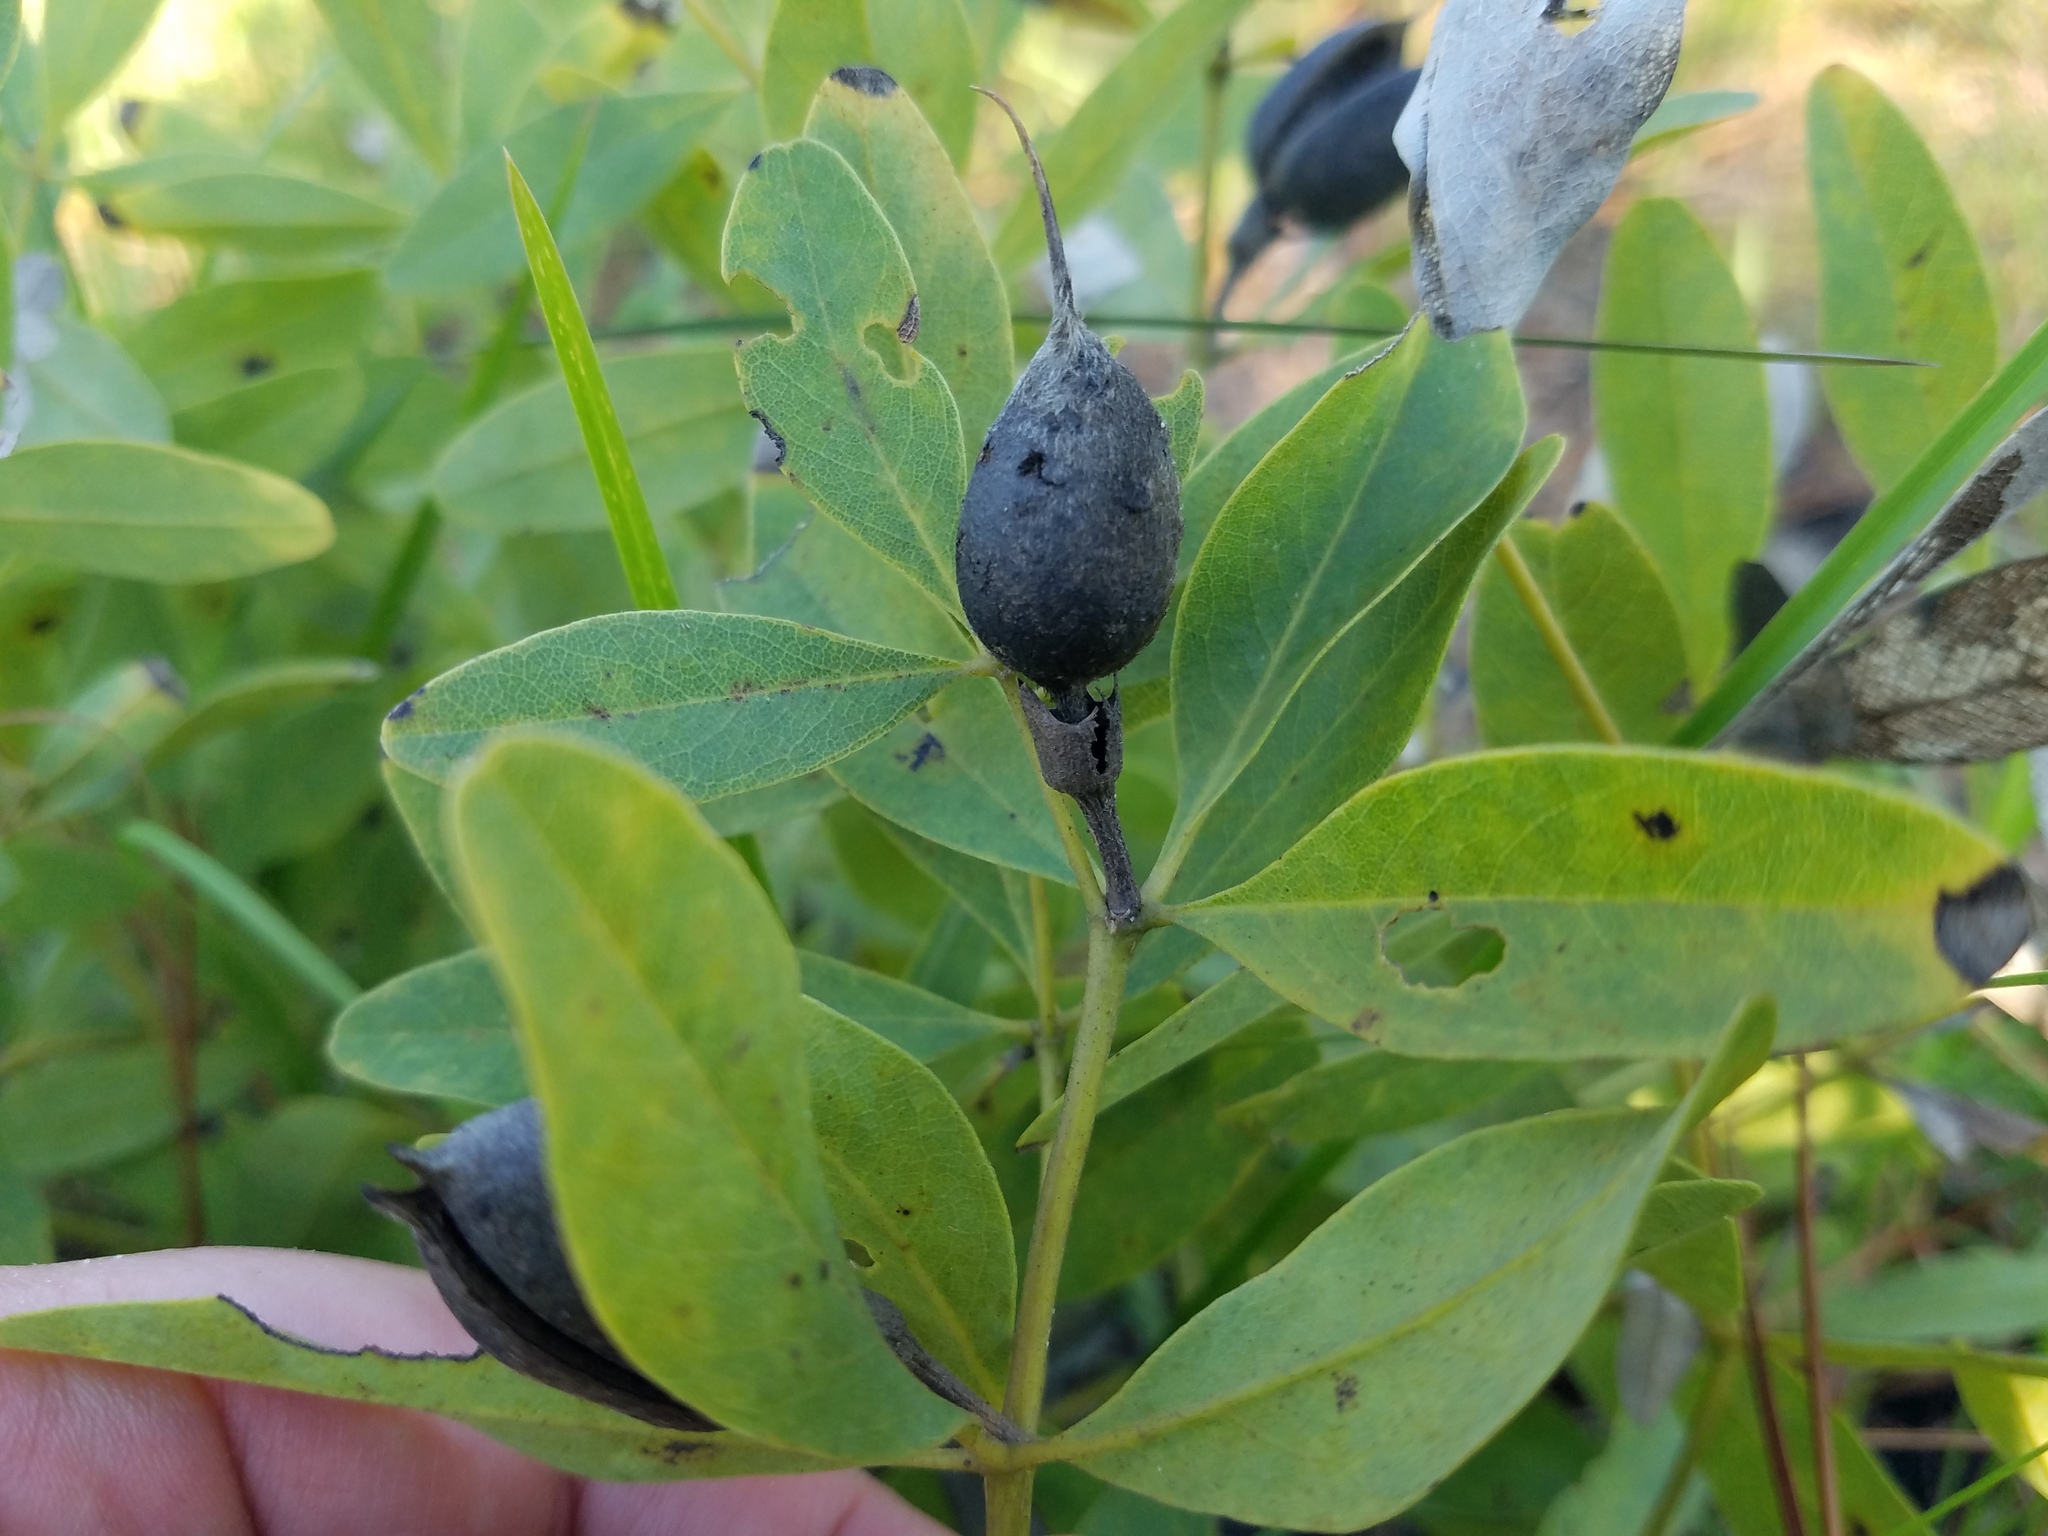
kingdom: Plantae
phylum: Tracheophyta
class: Magnoliopsida
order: Fabales
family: Fabaceae
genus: Baptisia
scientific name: Baptisia lanceolata
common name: Gopherweed
